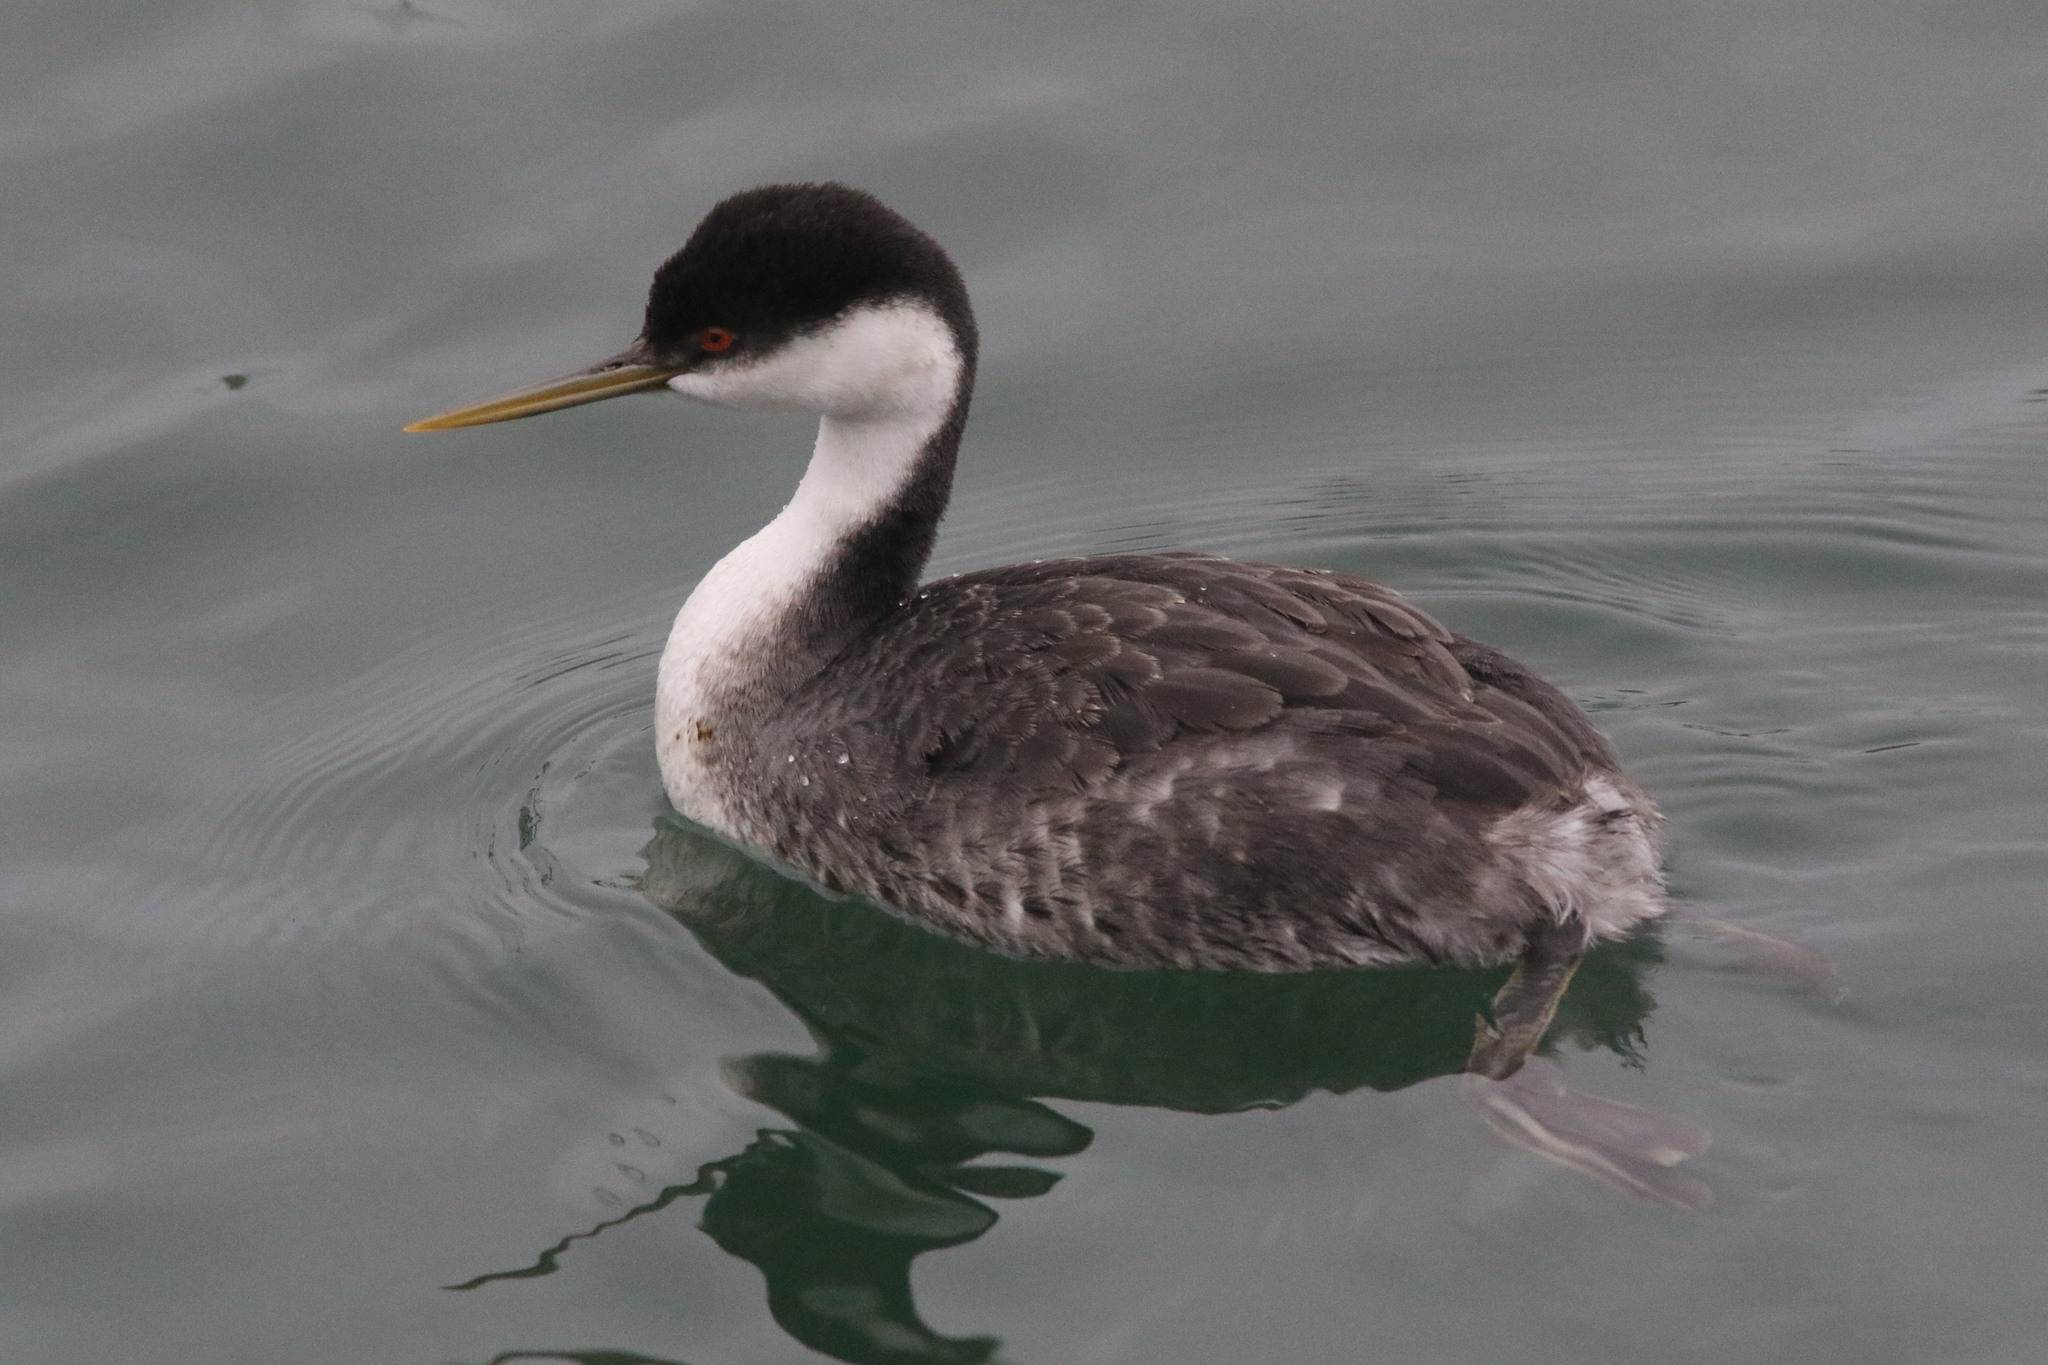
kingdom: Animalia
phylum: Chordata
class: Aves
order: Podicipediformes
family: Podicipedidae
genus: Aechmophorus
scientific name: Aechmophorus occidentalis
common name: Western grebe
